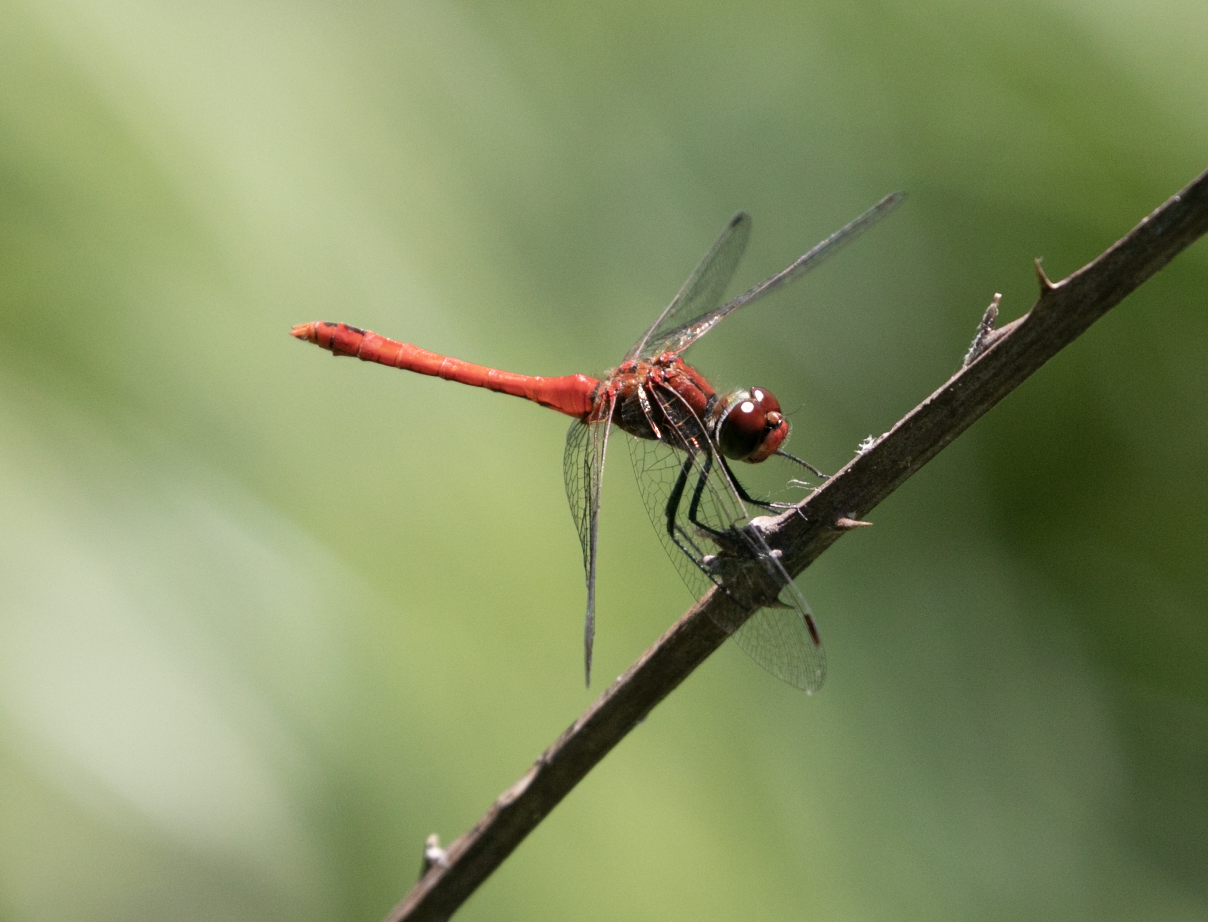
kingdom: Animalia
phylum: Arthropoda
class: Insecta
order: Odonata
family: Libellulidae
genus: Sympetrum
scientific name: Sympetrum sanguineum
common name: Ruddy darter
